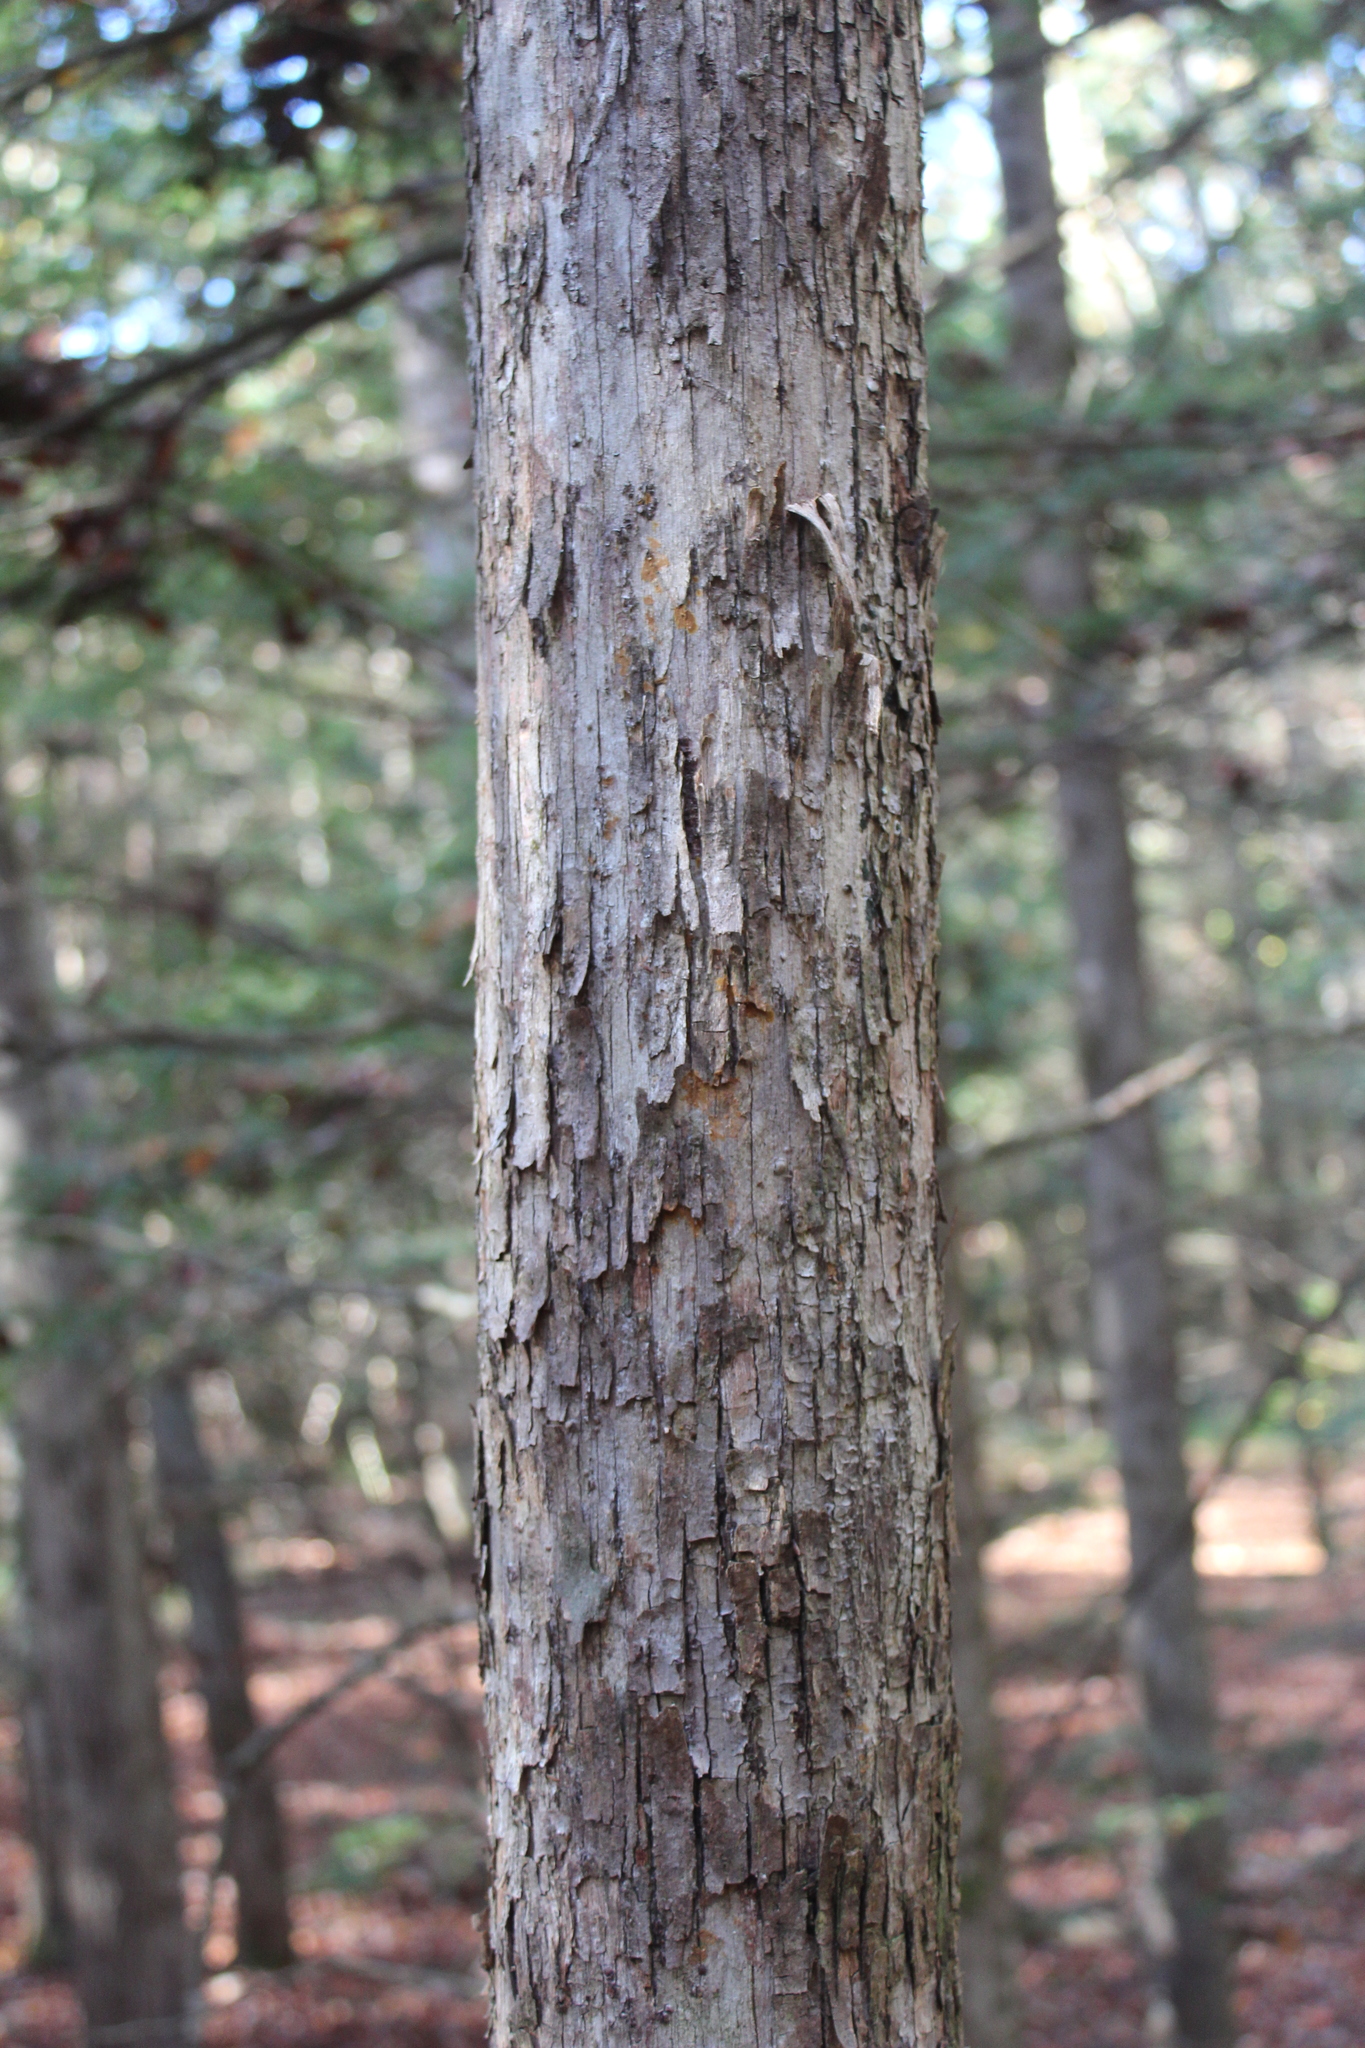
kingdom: Plantae
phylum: Tracheophyta
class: Magnoliopsida
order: Fagales
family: Betulaceae
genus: Ostrya
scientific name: Ostrya virginiana
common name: Ironwood
